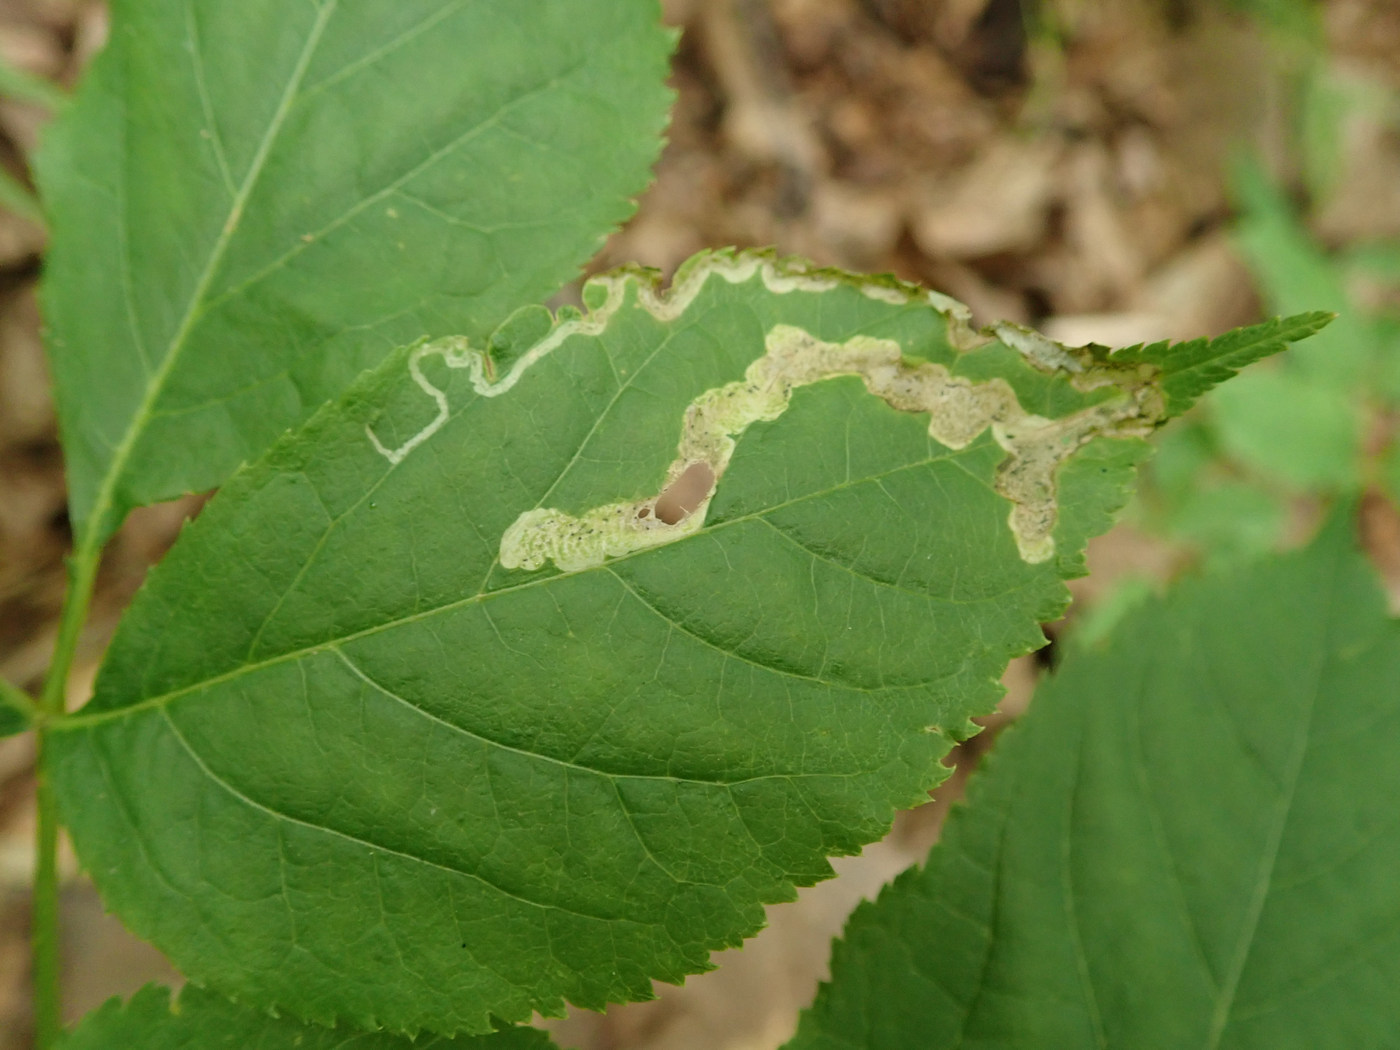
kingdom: Animalia
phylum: Arthropoda
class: Insecta
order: Diptera
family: Agromyzidae
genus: Phytomyza
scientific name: Phytomyza aralivora
